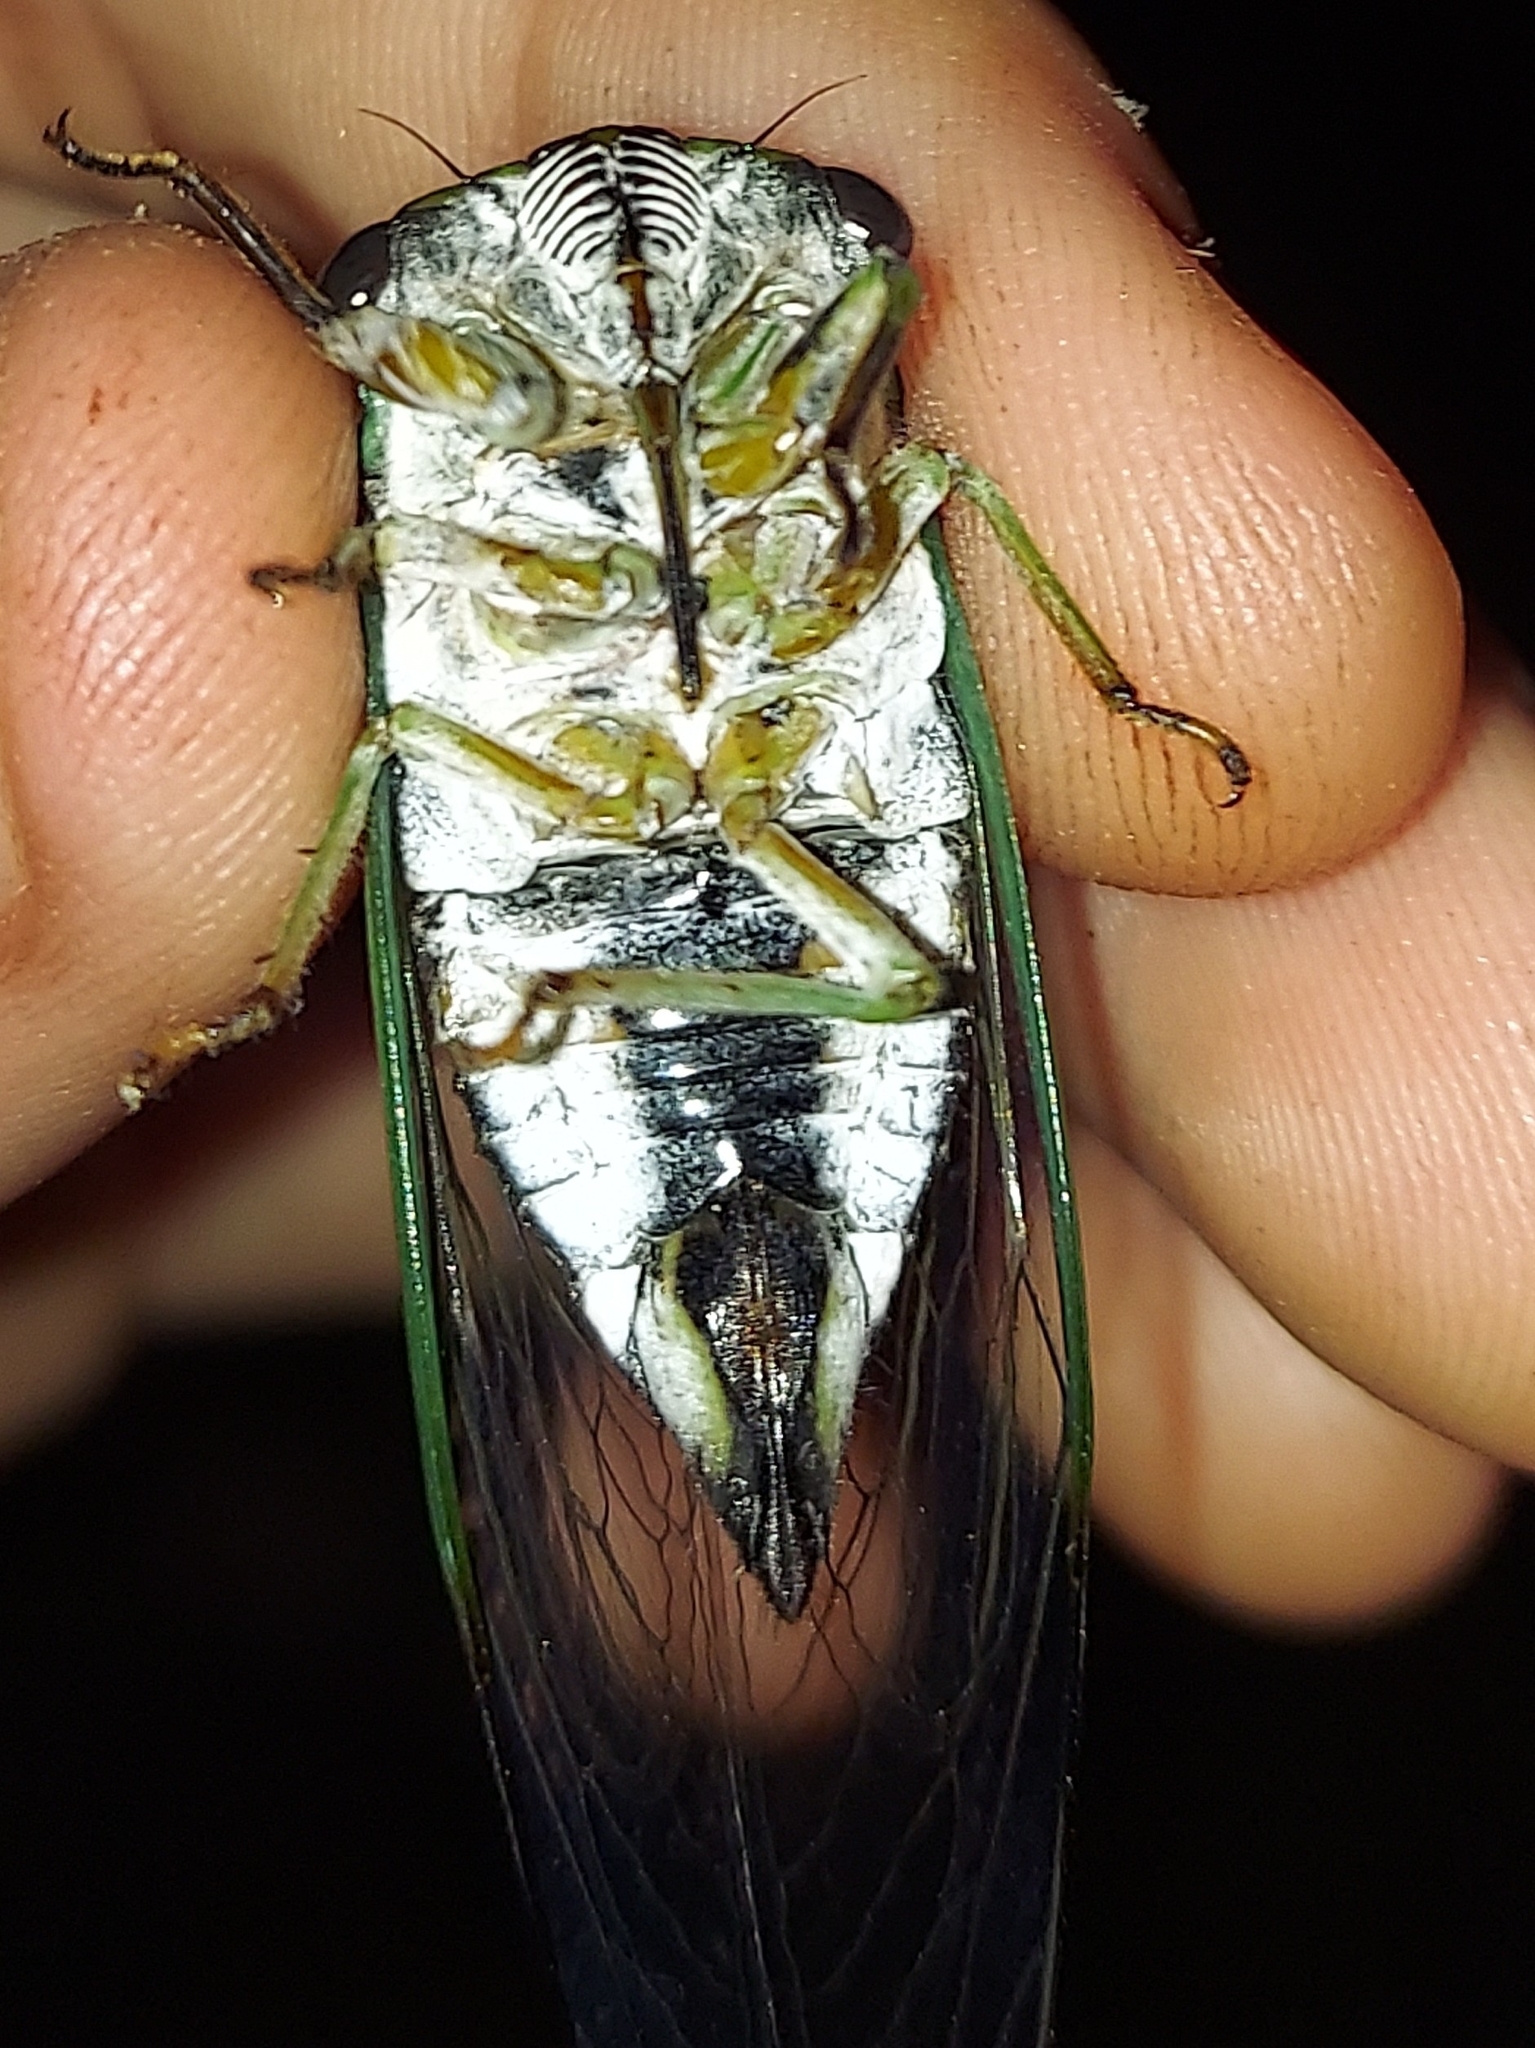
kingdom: Animalia
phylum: Arthropoda
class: Insecta
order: Hemiptera
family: Cicadidae
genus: Neotibicen
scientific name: Neotibicen linnei
